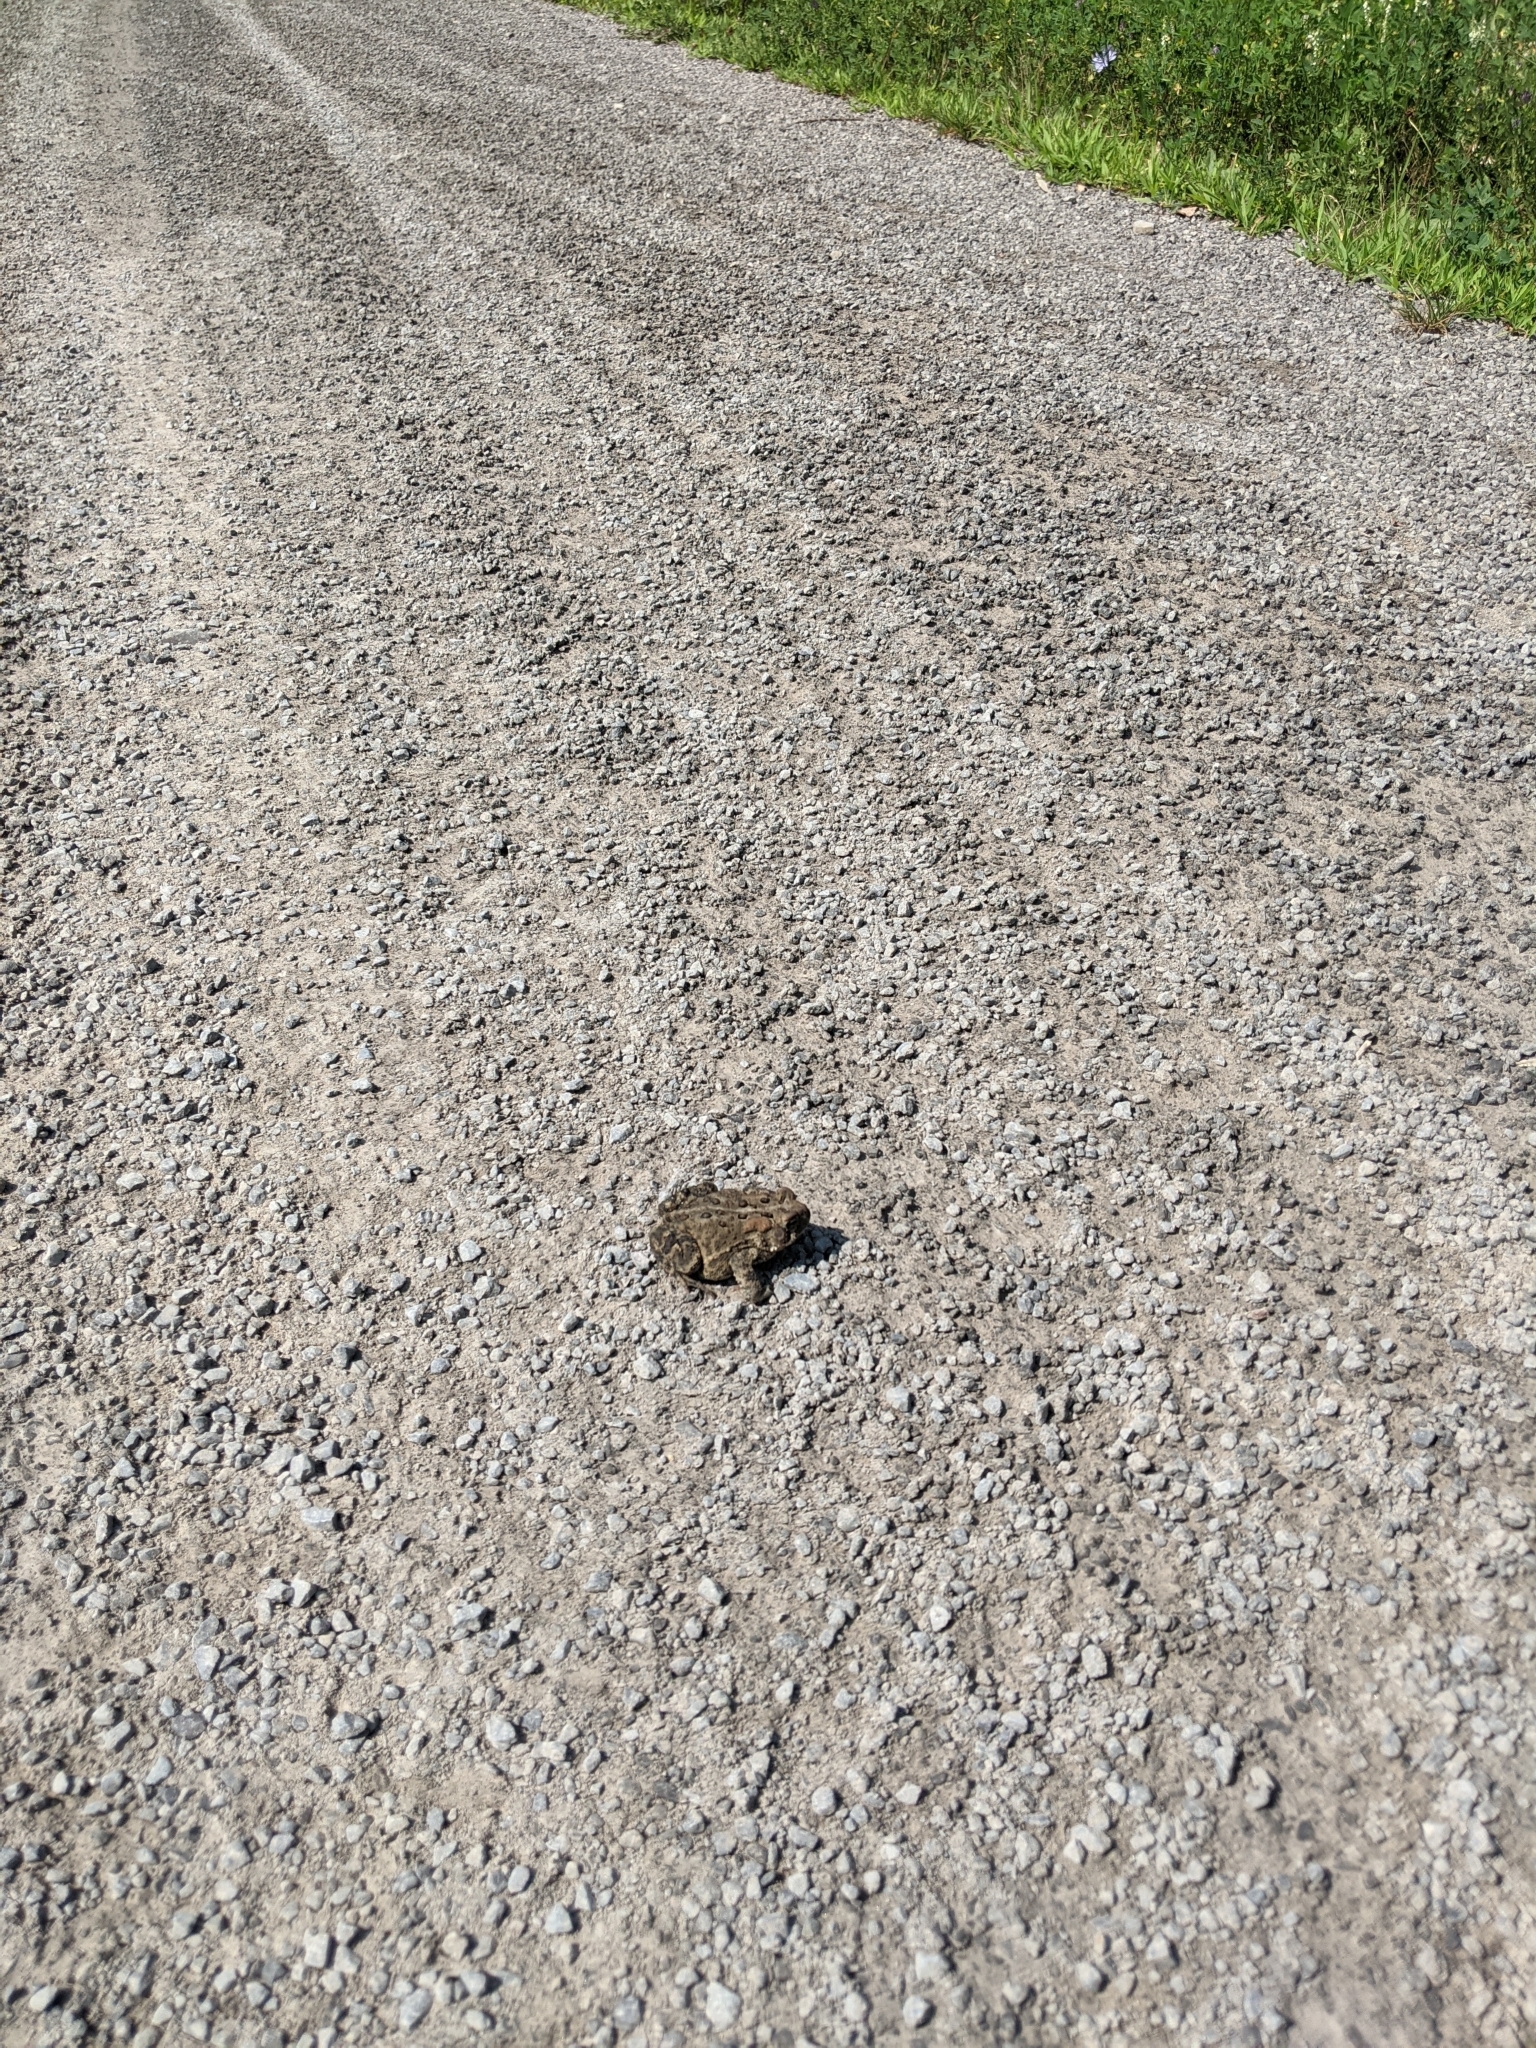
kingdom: Animalia
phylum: Chordata
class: Amphibia
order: Anura
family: Bufonidae
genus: Anaxyrus
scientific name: Anaxyrus americanus
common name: American toad
